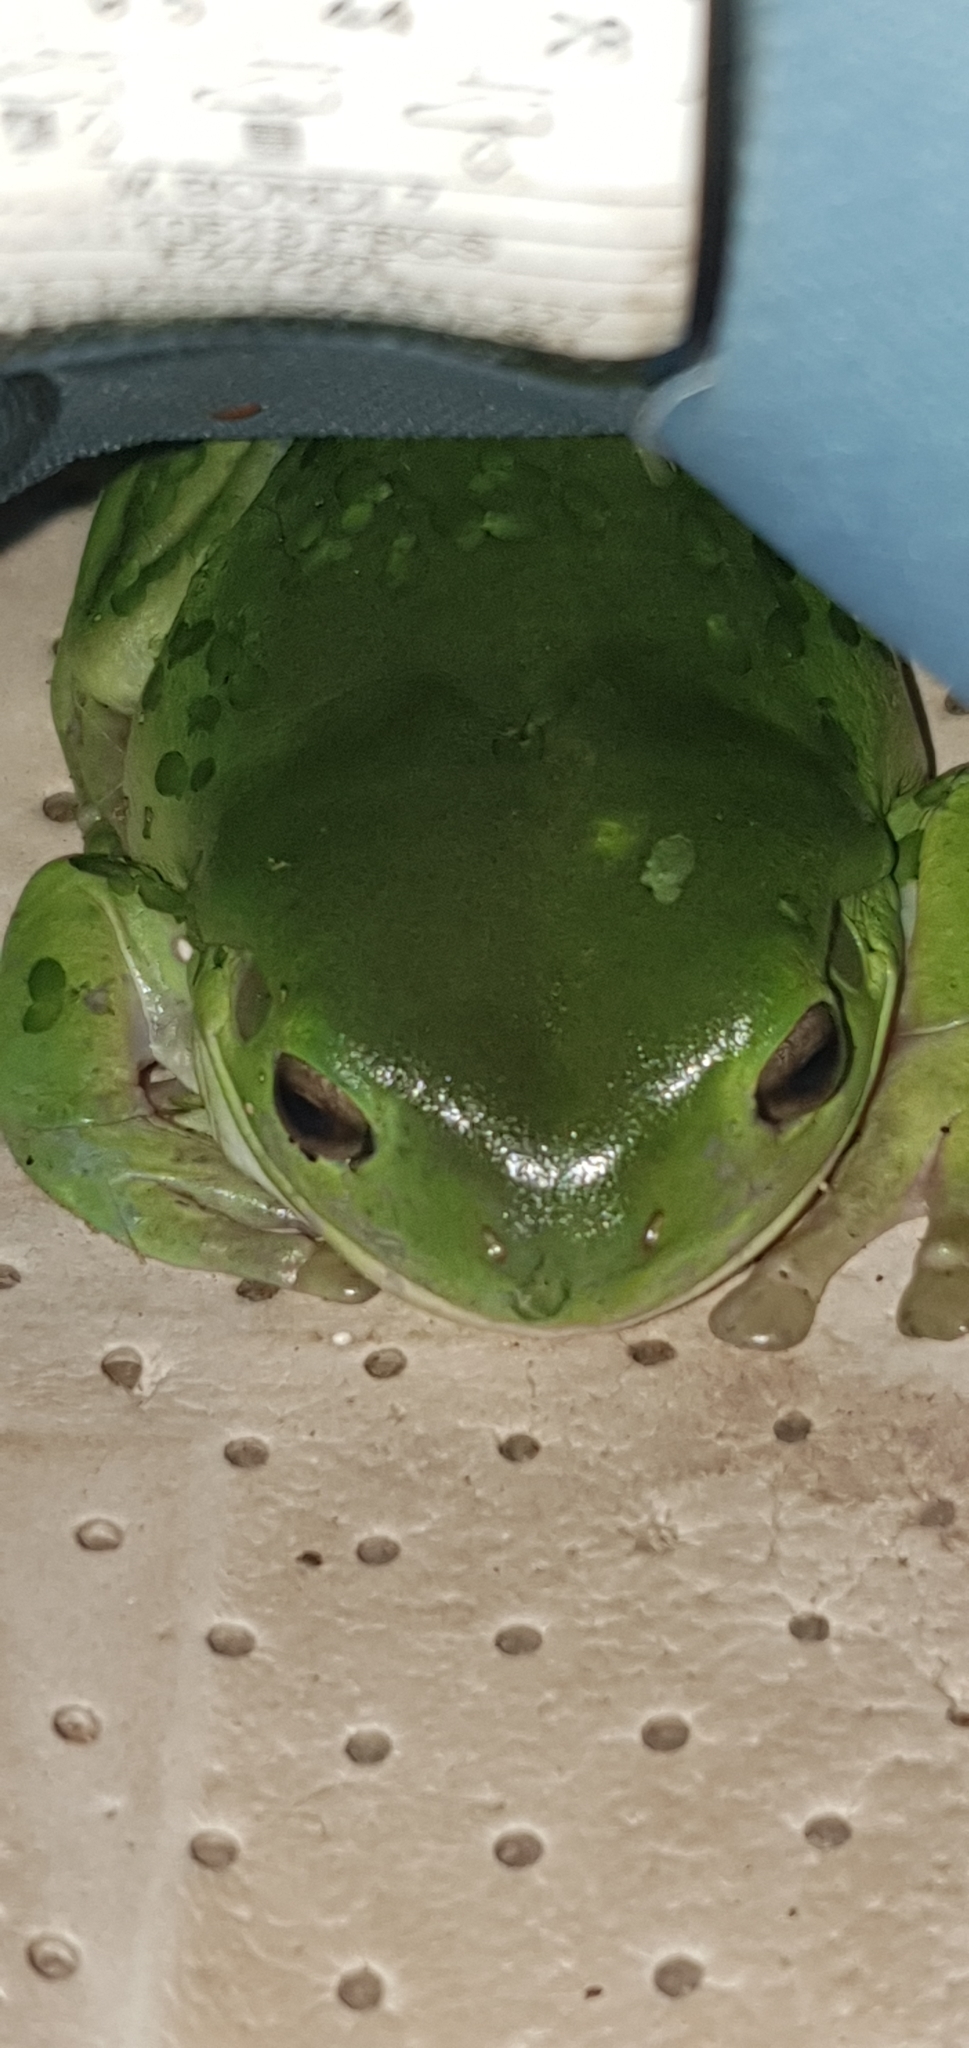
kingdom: Animalia
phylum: Chordata
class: Amphibia
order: Anura
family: Pelodryadidae
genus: Ranoidea
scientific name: Ranoidea caerulea
